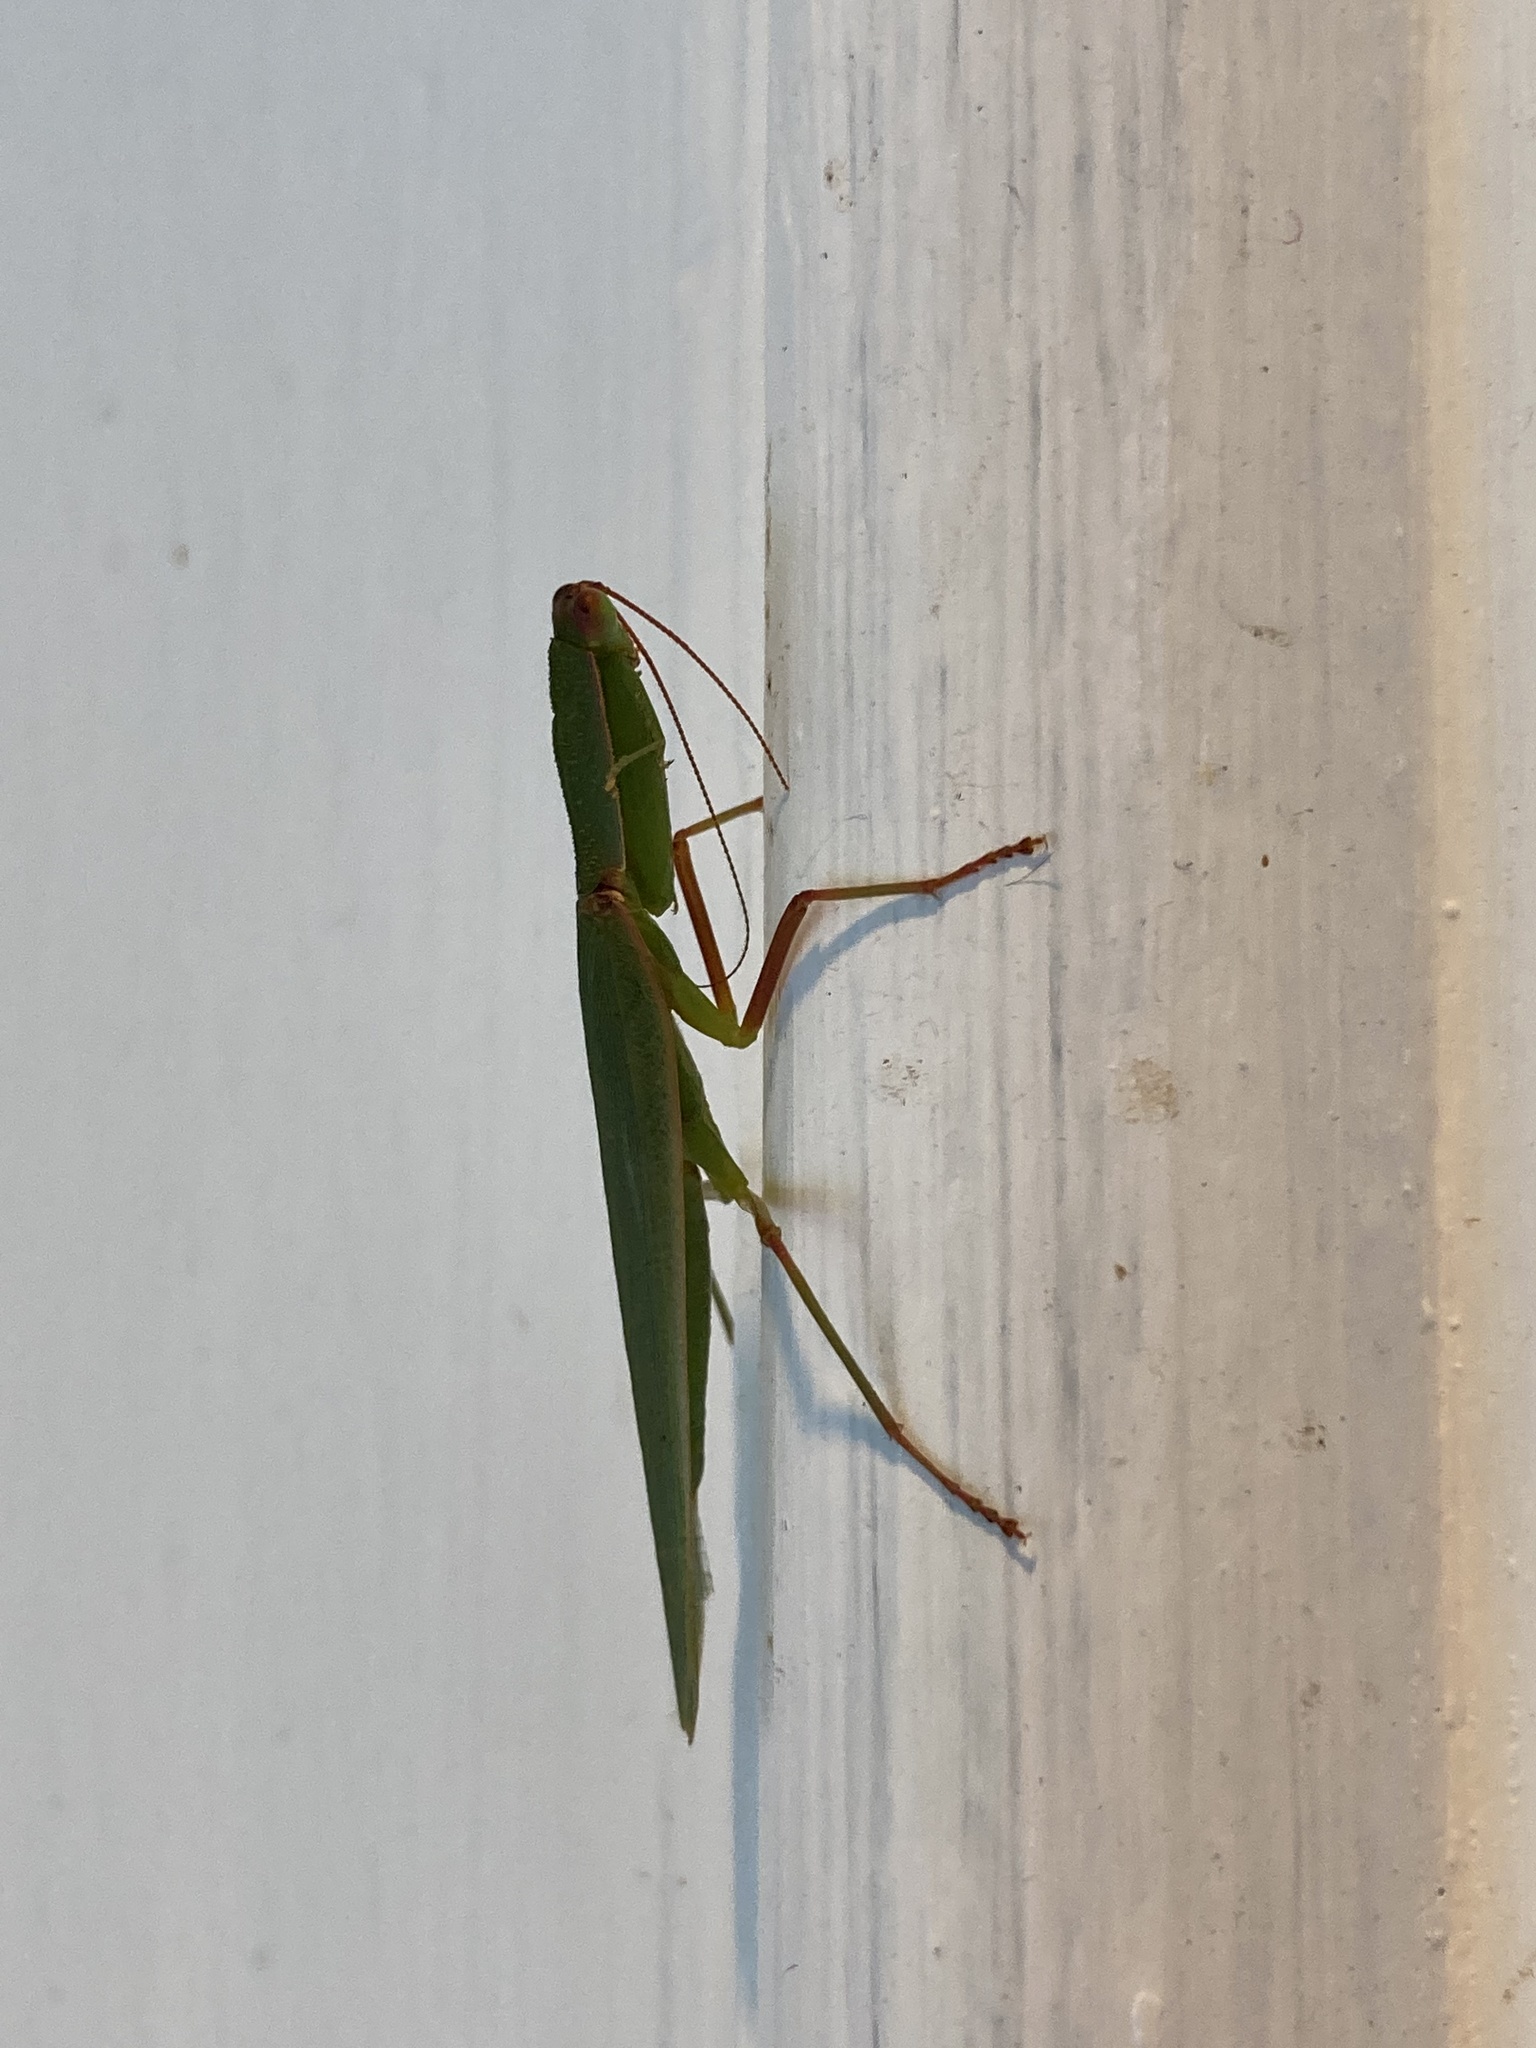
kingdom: Animalia
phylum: Arthropoda
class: Insecta
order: Mantodea
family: Mantidae
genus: Orthodera
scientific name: Orthodera novaezealandiae
